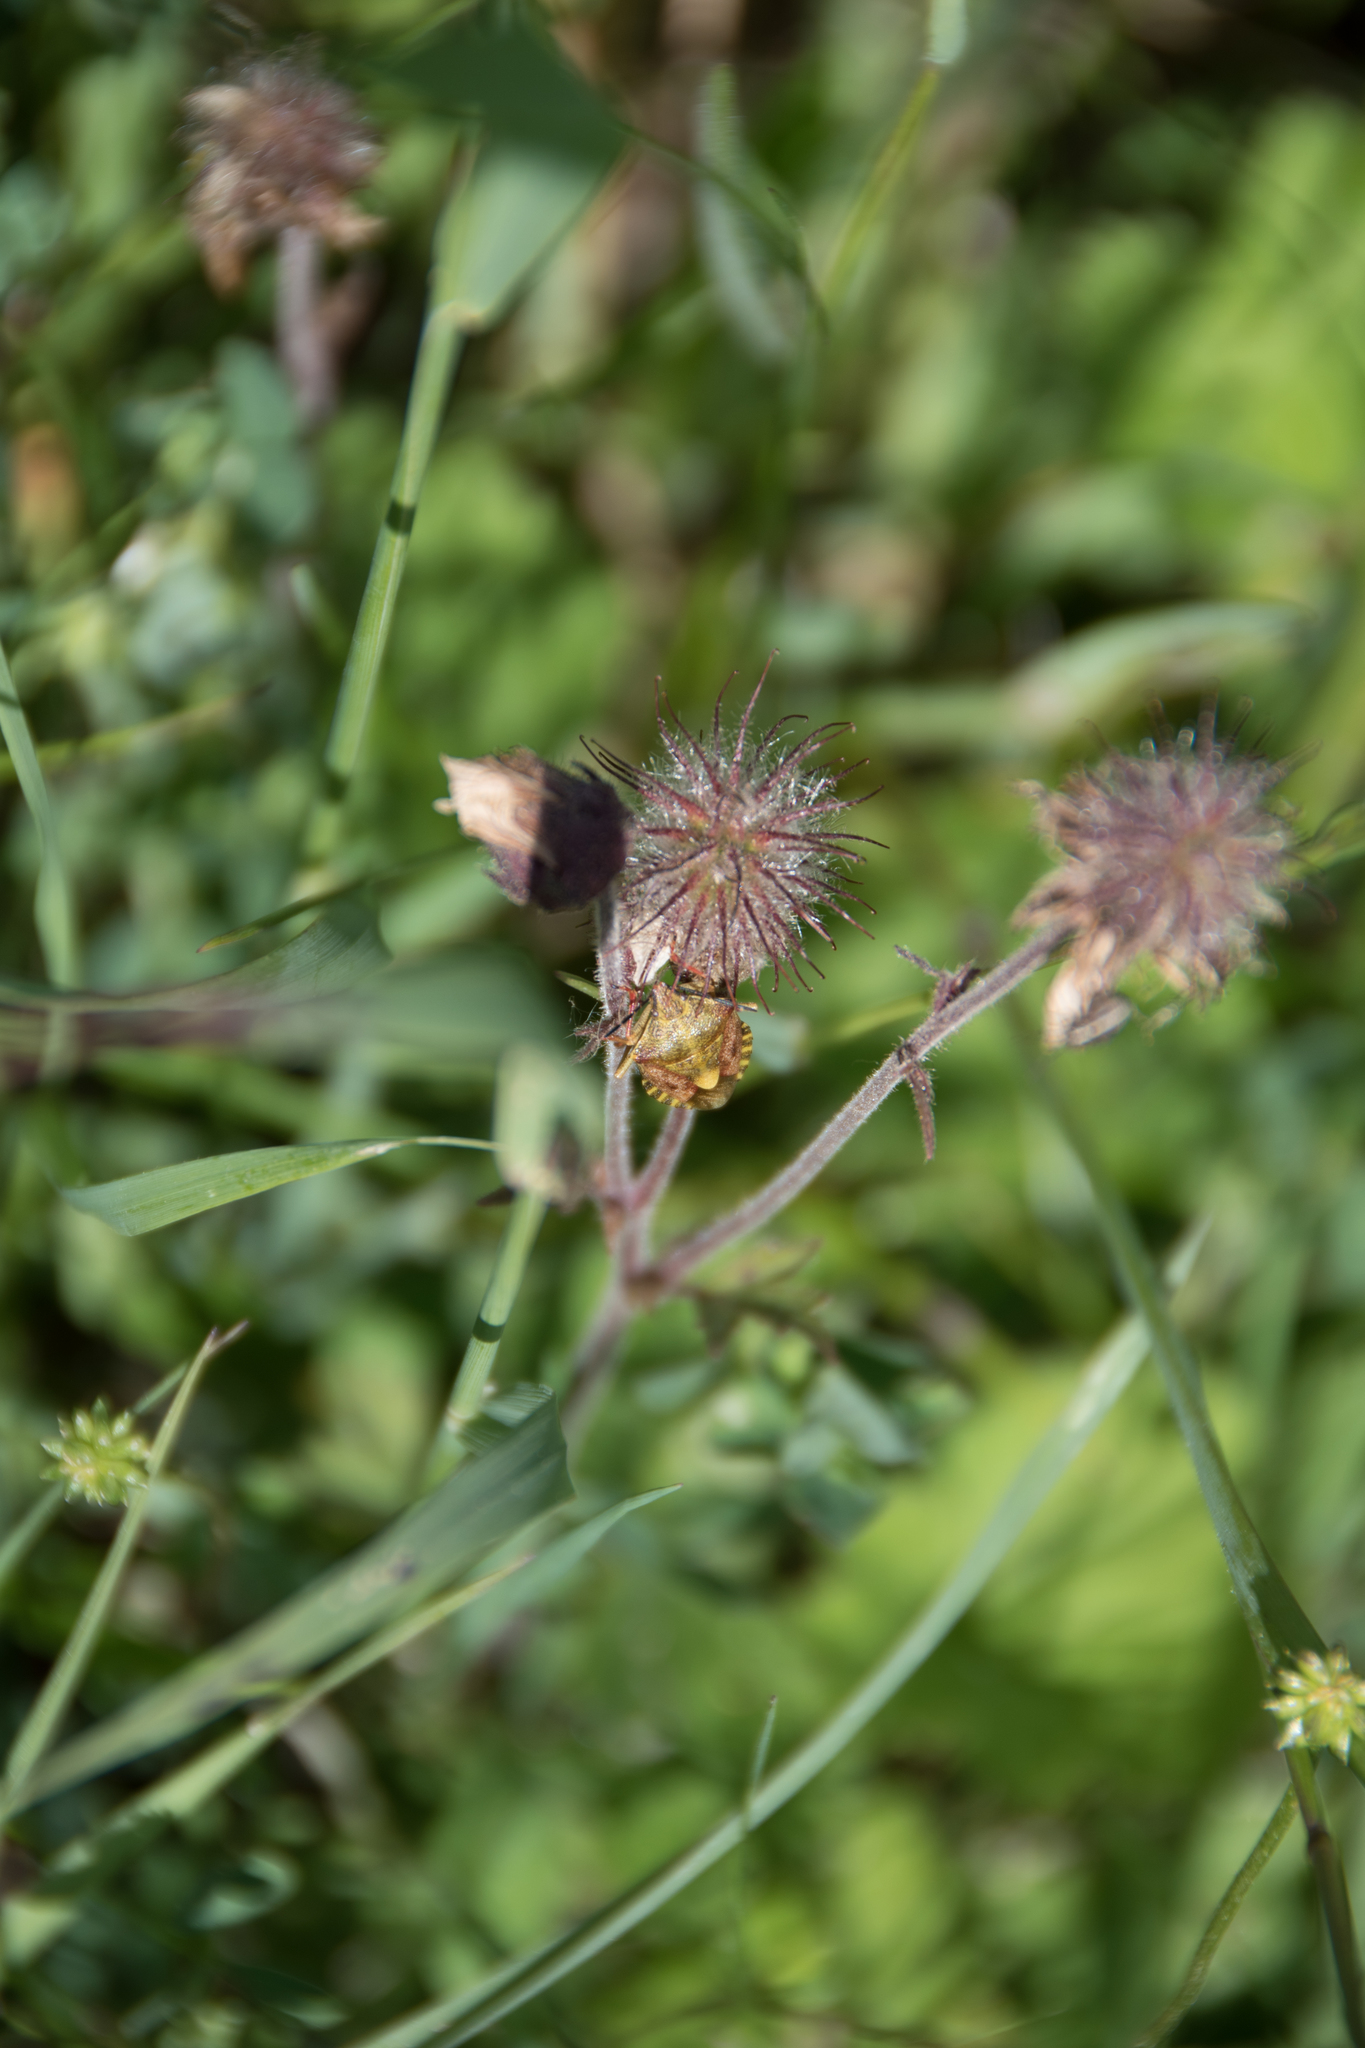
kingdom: Animalia
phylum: Arthropoda
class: Insecta
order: Hemiptera
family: Pentatomidae
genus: Carpocoris
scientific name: Carpocoris purpureipennis
